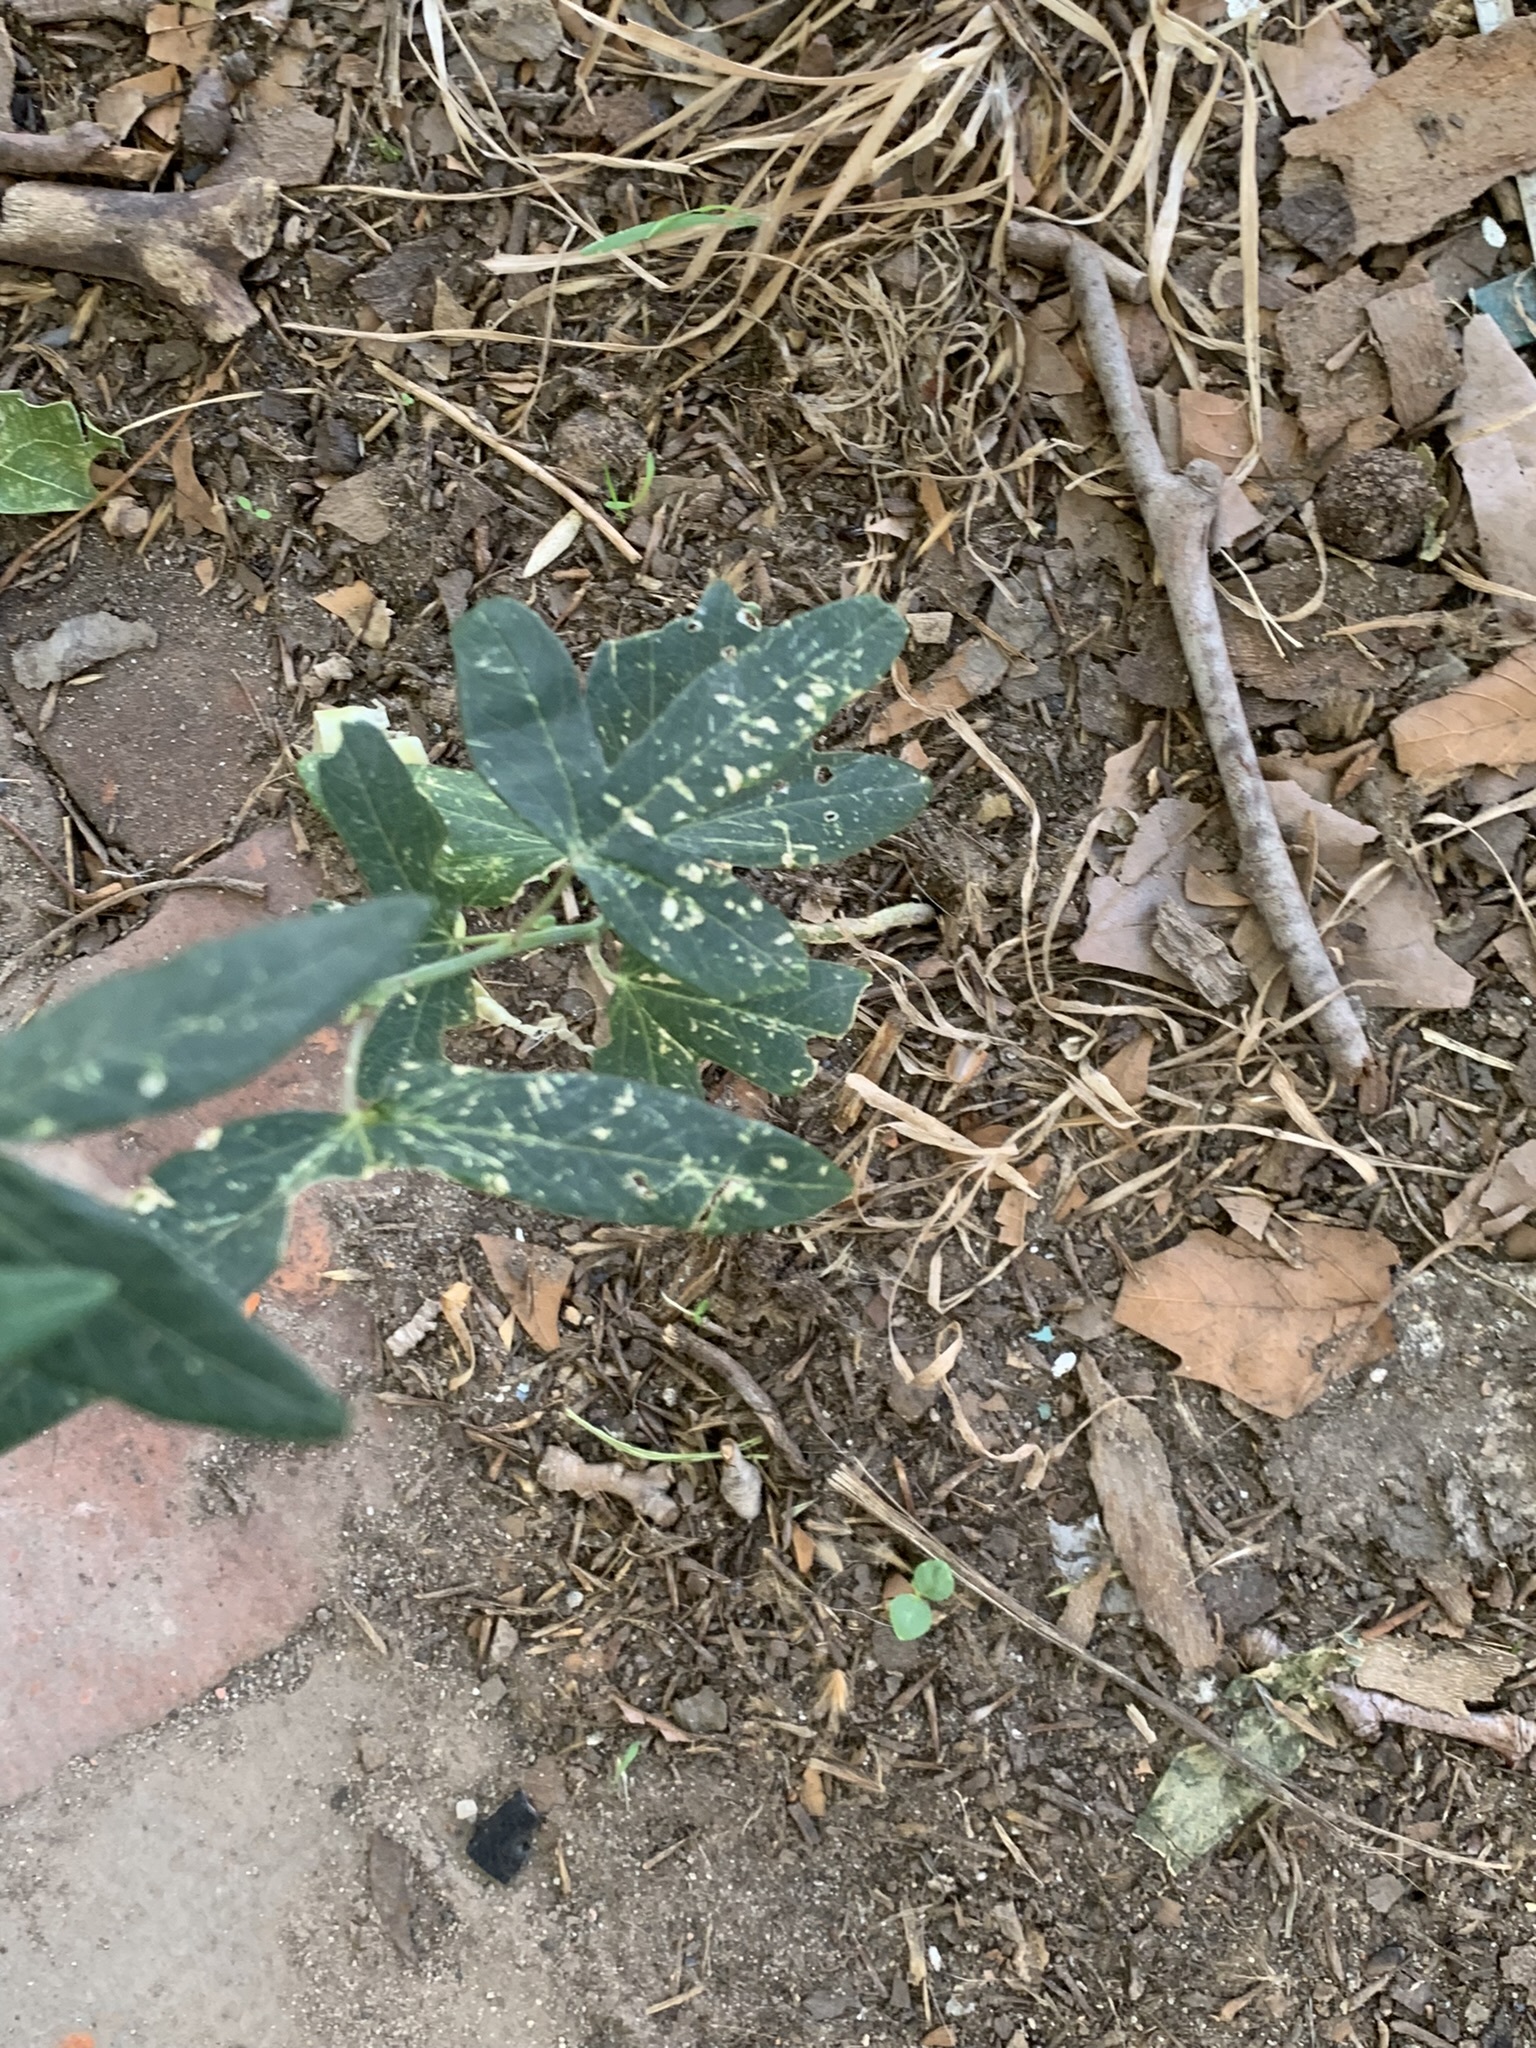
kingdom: Plantae
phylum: Tracheophyta
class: Magnoliopsida
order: Malpighiales
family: Passifloraceae
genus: Passiflora
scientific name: Passiflora caerulea
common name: Blue passionflower
